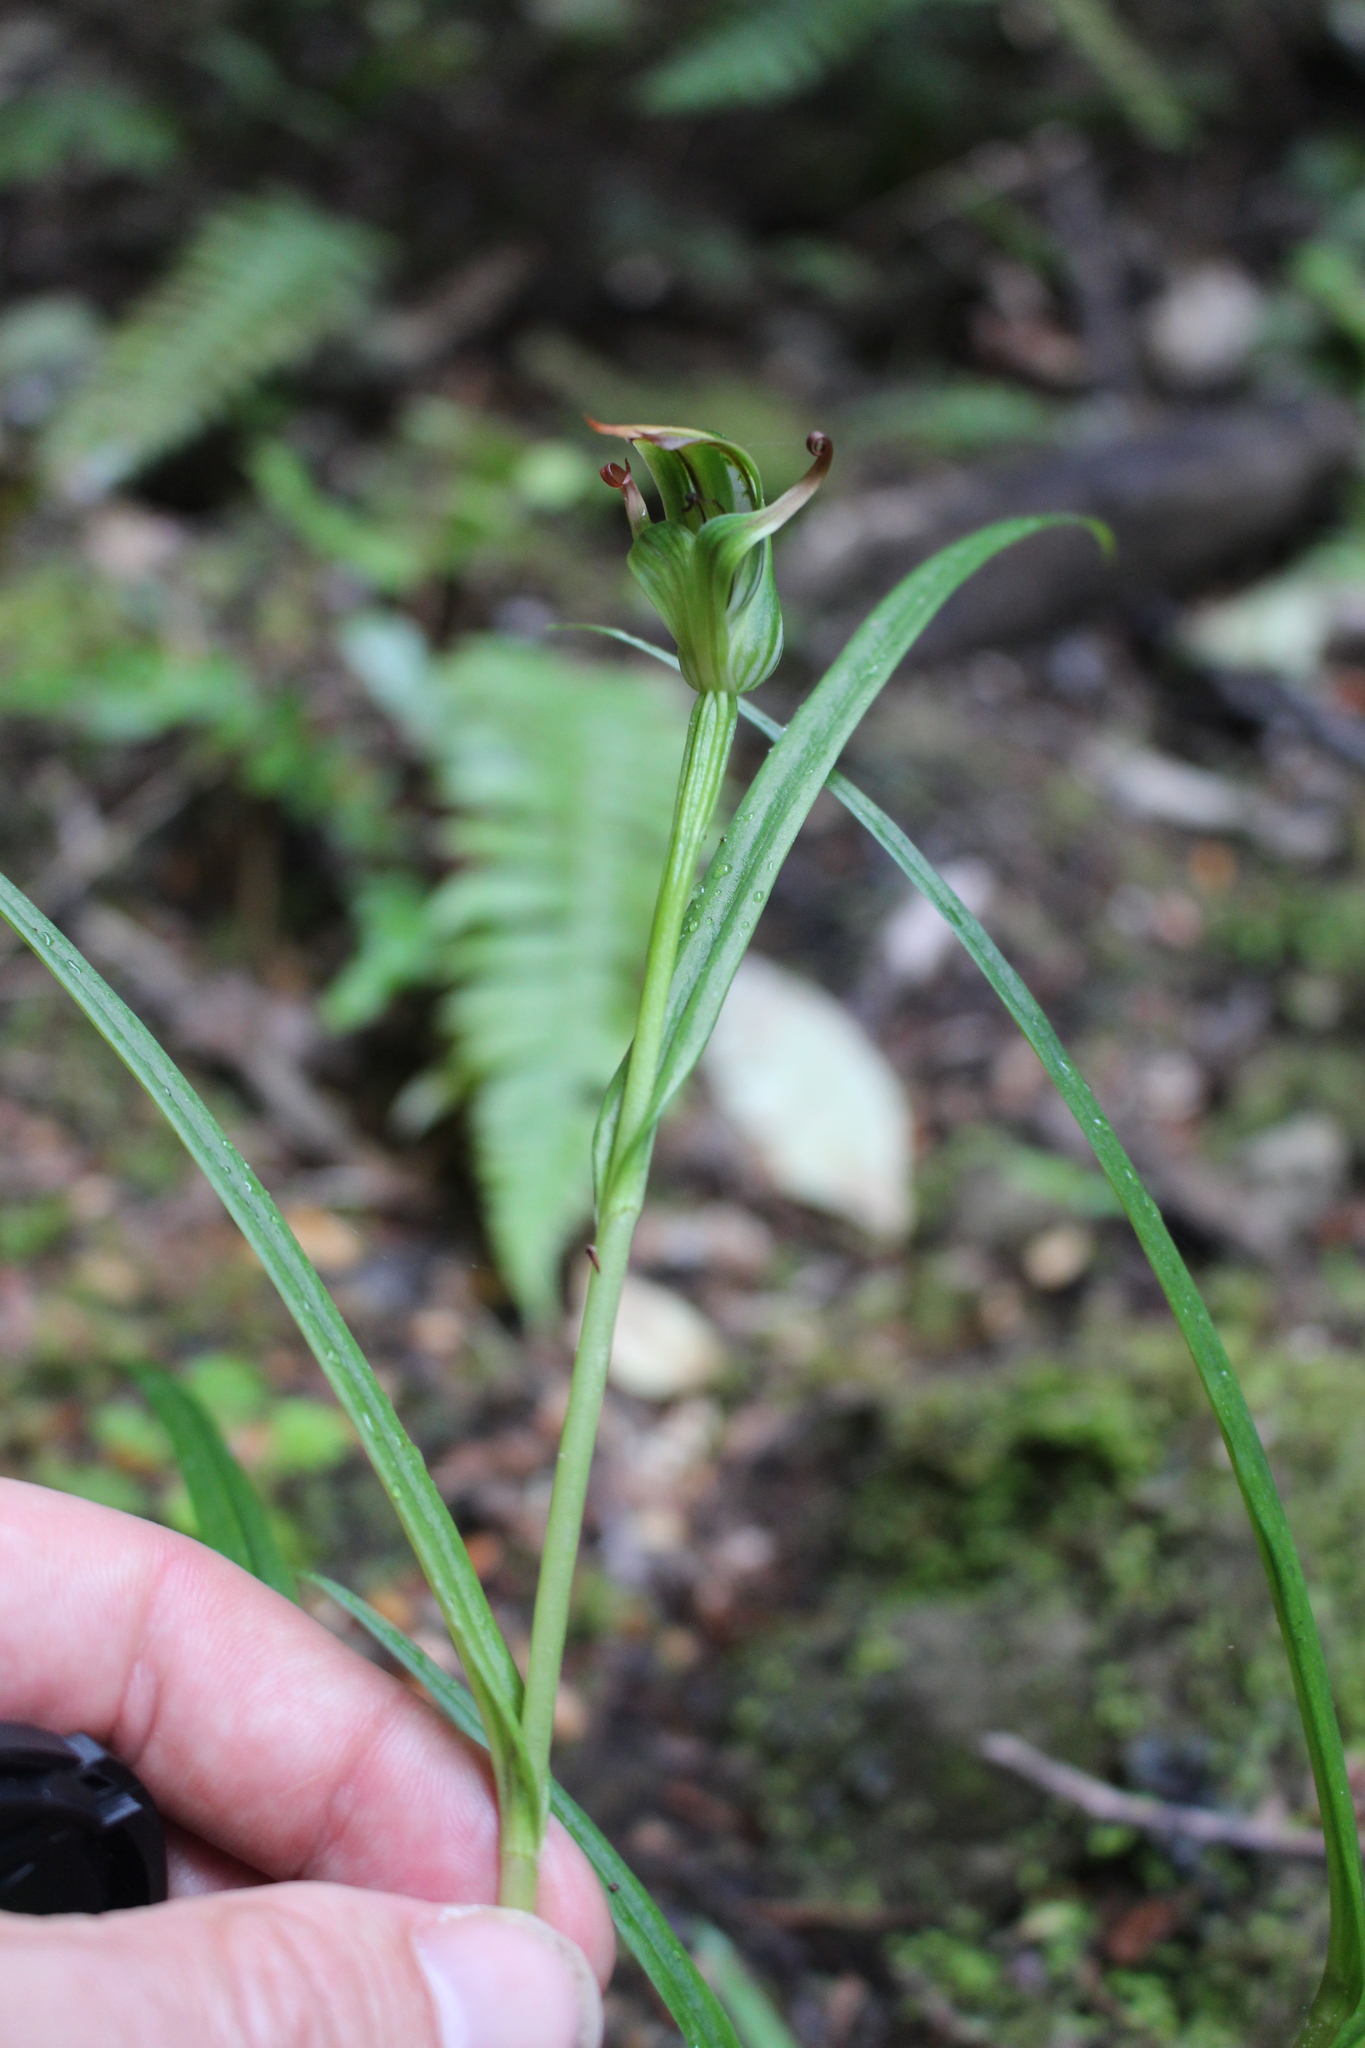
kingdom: Plantae
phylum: Tracheophyta
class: Liliopsida
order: Asparagales
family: Orchidaceae
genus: Pterostylis
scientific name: Pterostylis montana
